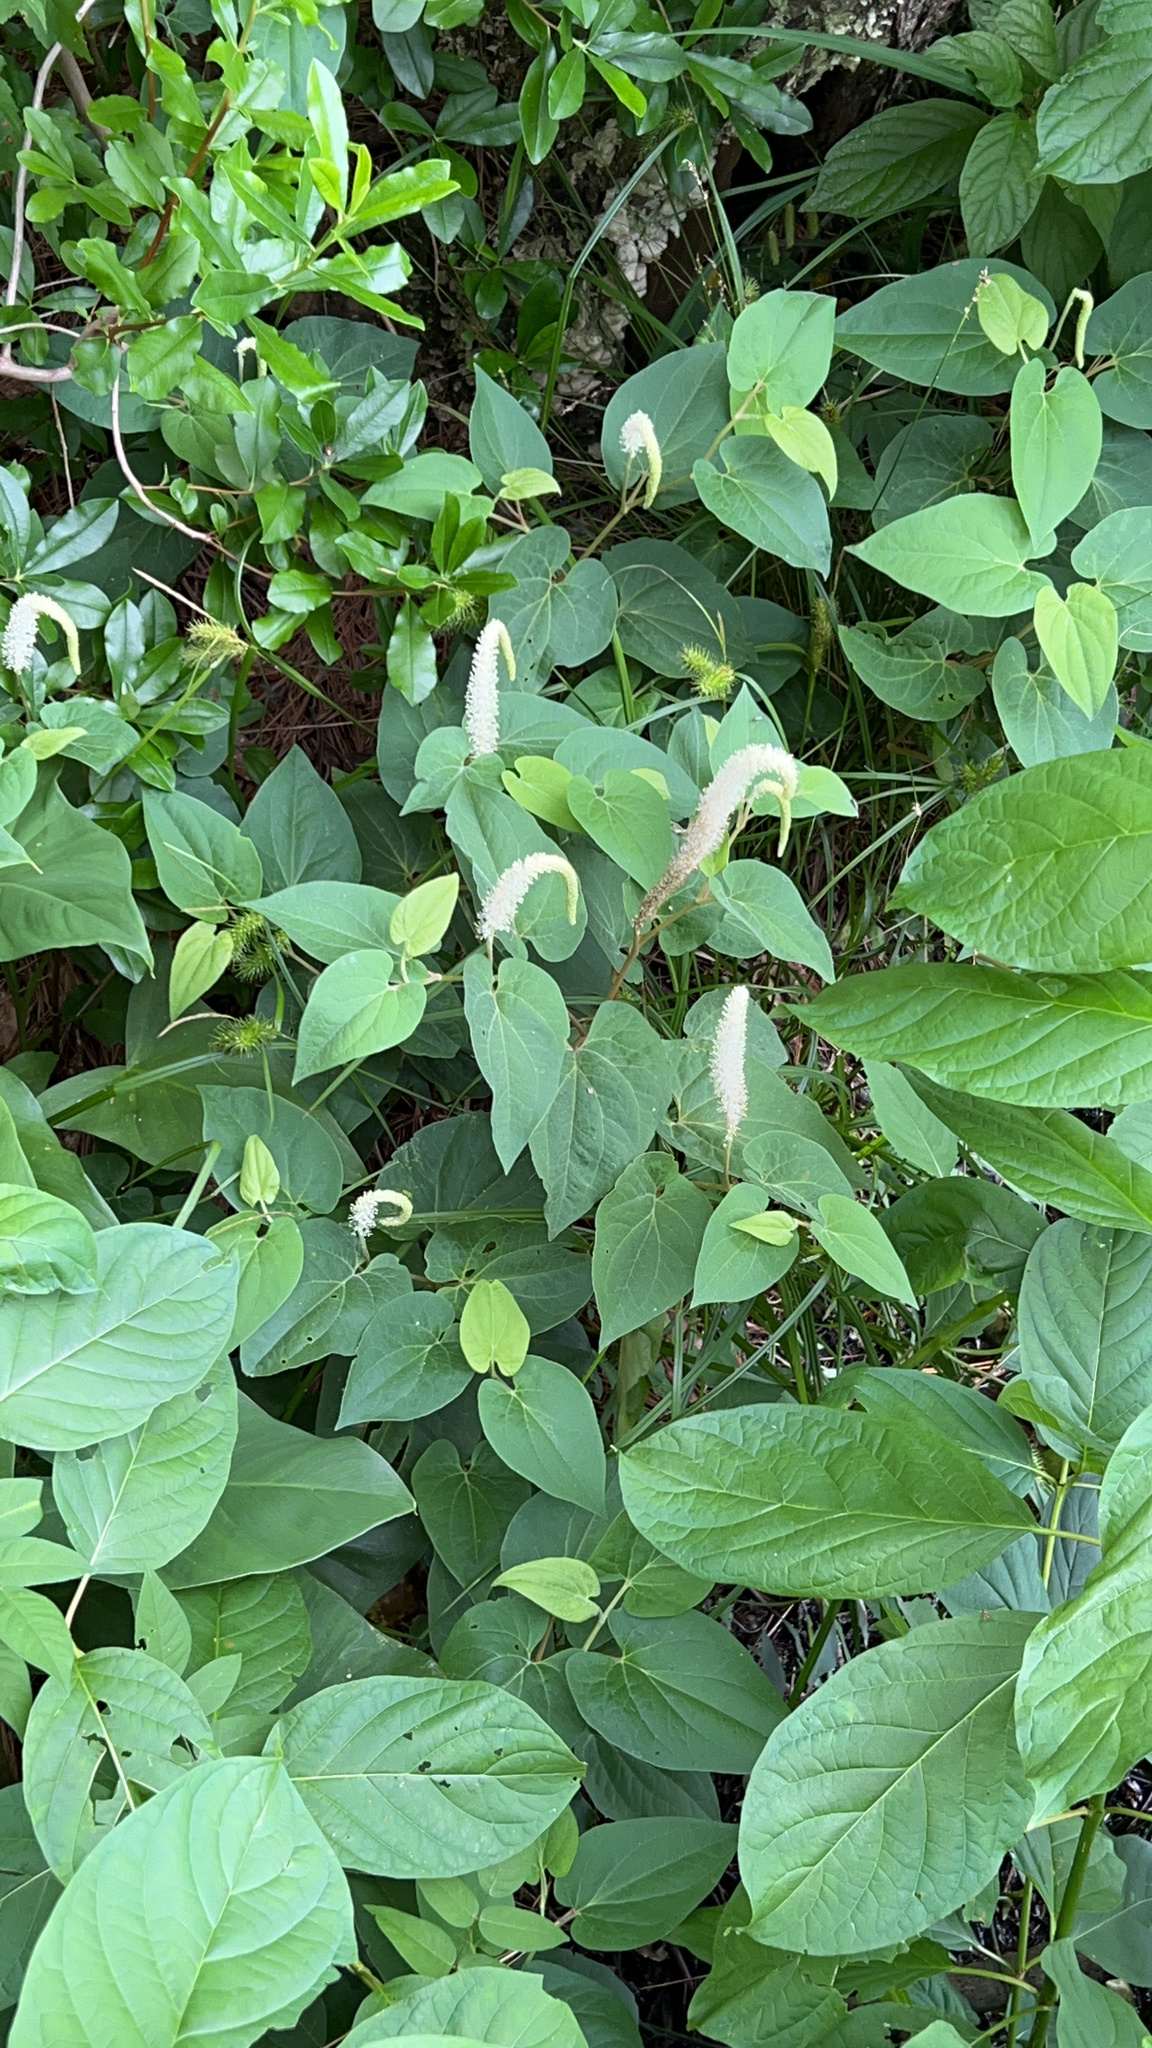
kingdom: Plantae
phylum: Tracheophyta
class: Magnoliopsida
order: Piperales
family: Saururaceae
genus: Saururus
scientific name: Saururus cernuus
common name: Lizard's-tail
